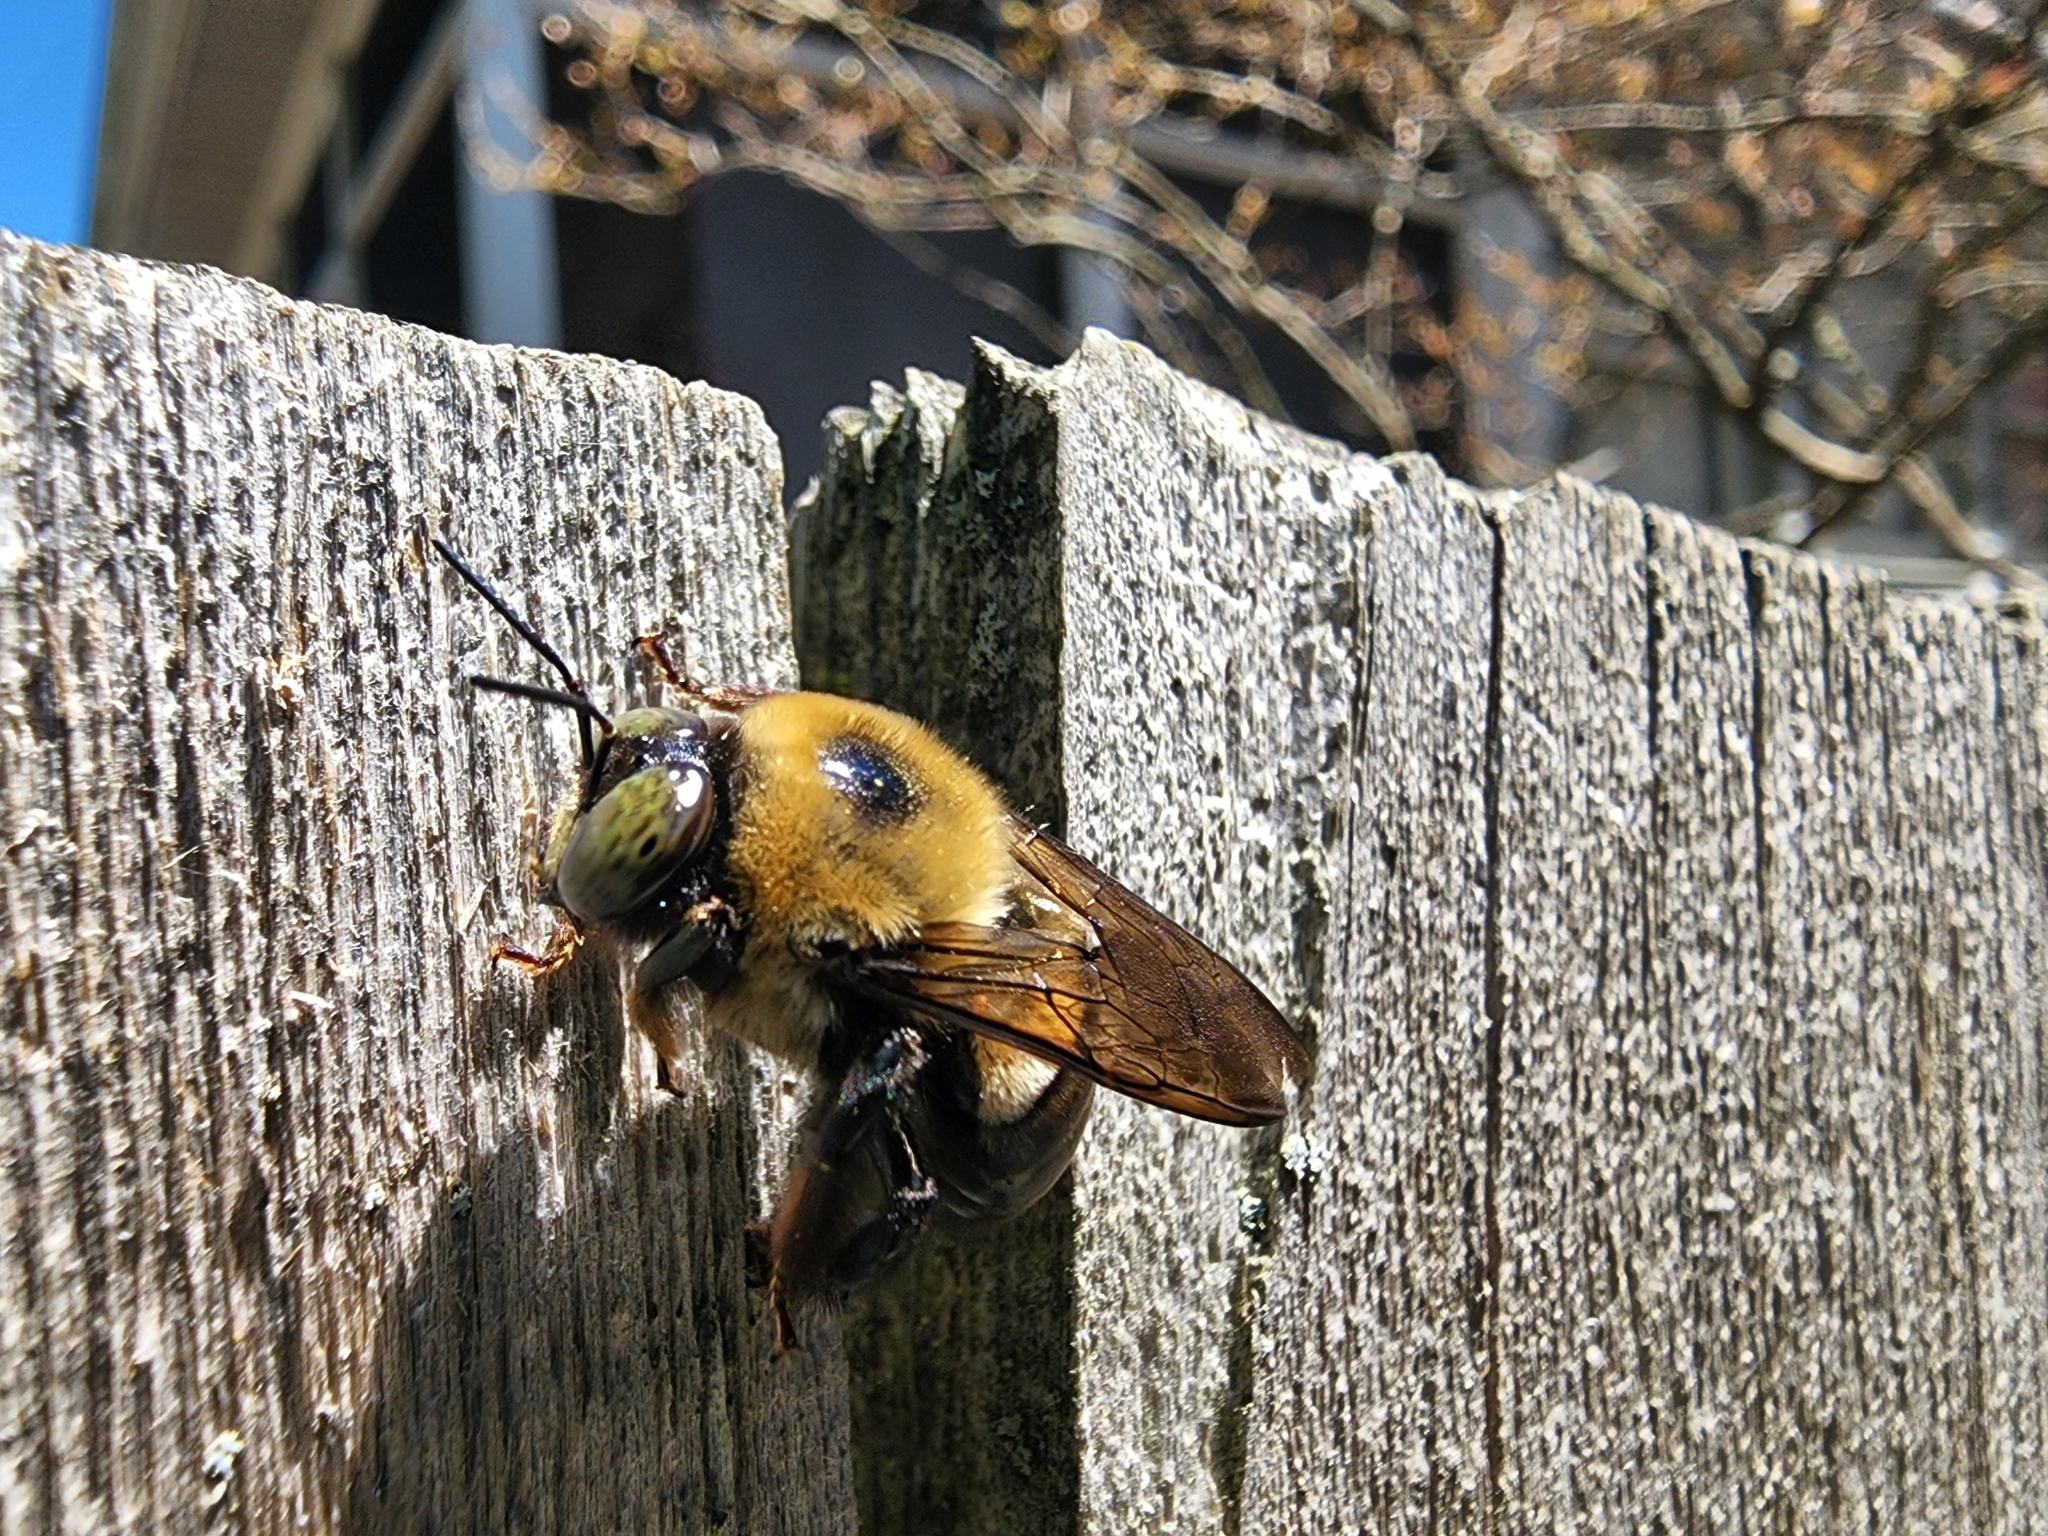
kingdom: Animalia
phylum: Arthropoda
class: Insecta
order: Hymenoptera
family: Apidae
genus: Xylocopa
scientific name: Xylocopa virginica
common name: Carpenter bee
